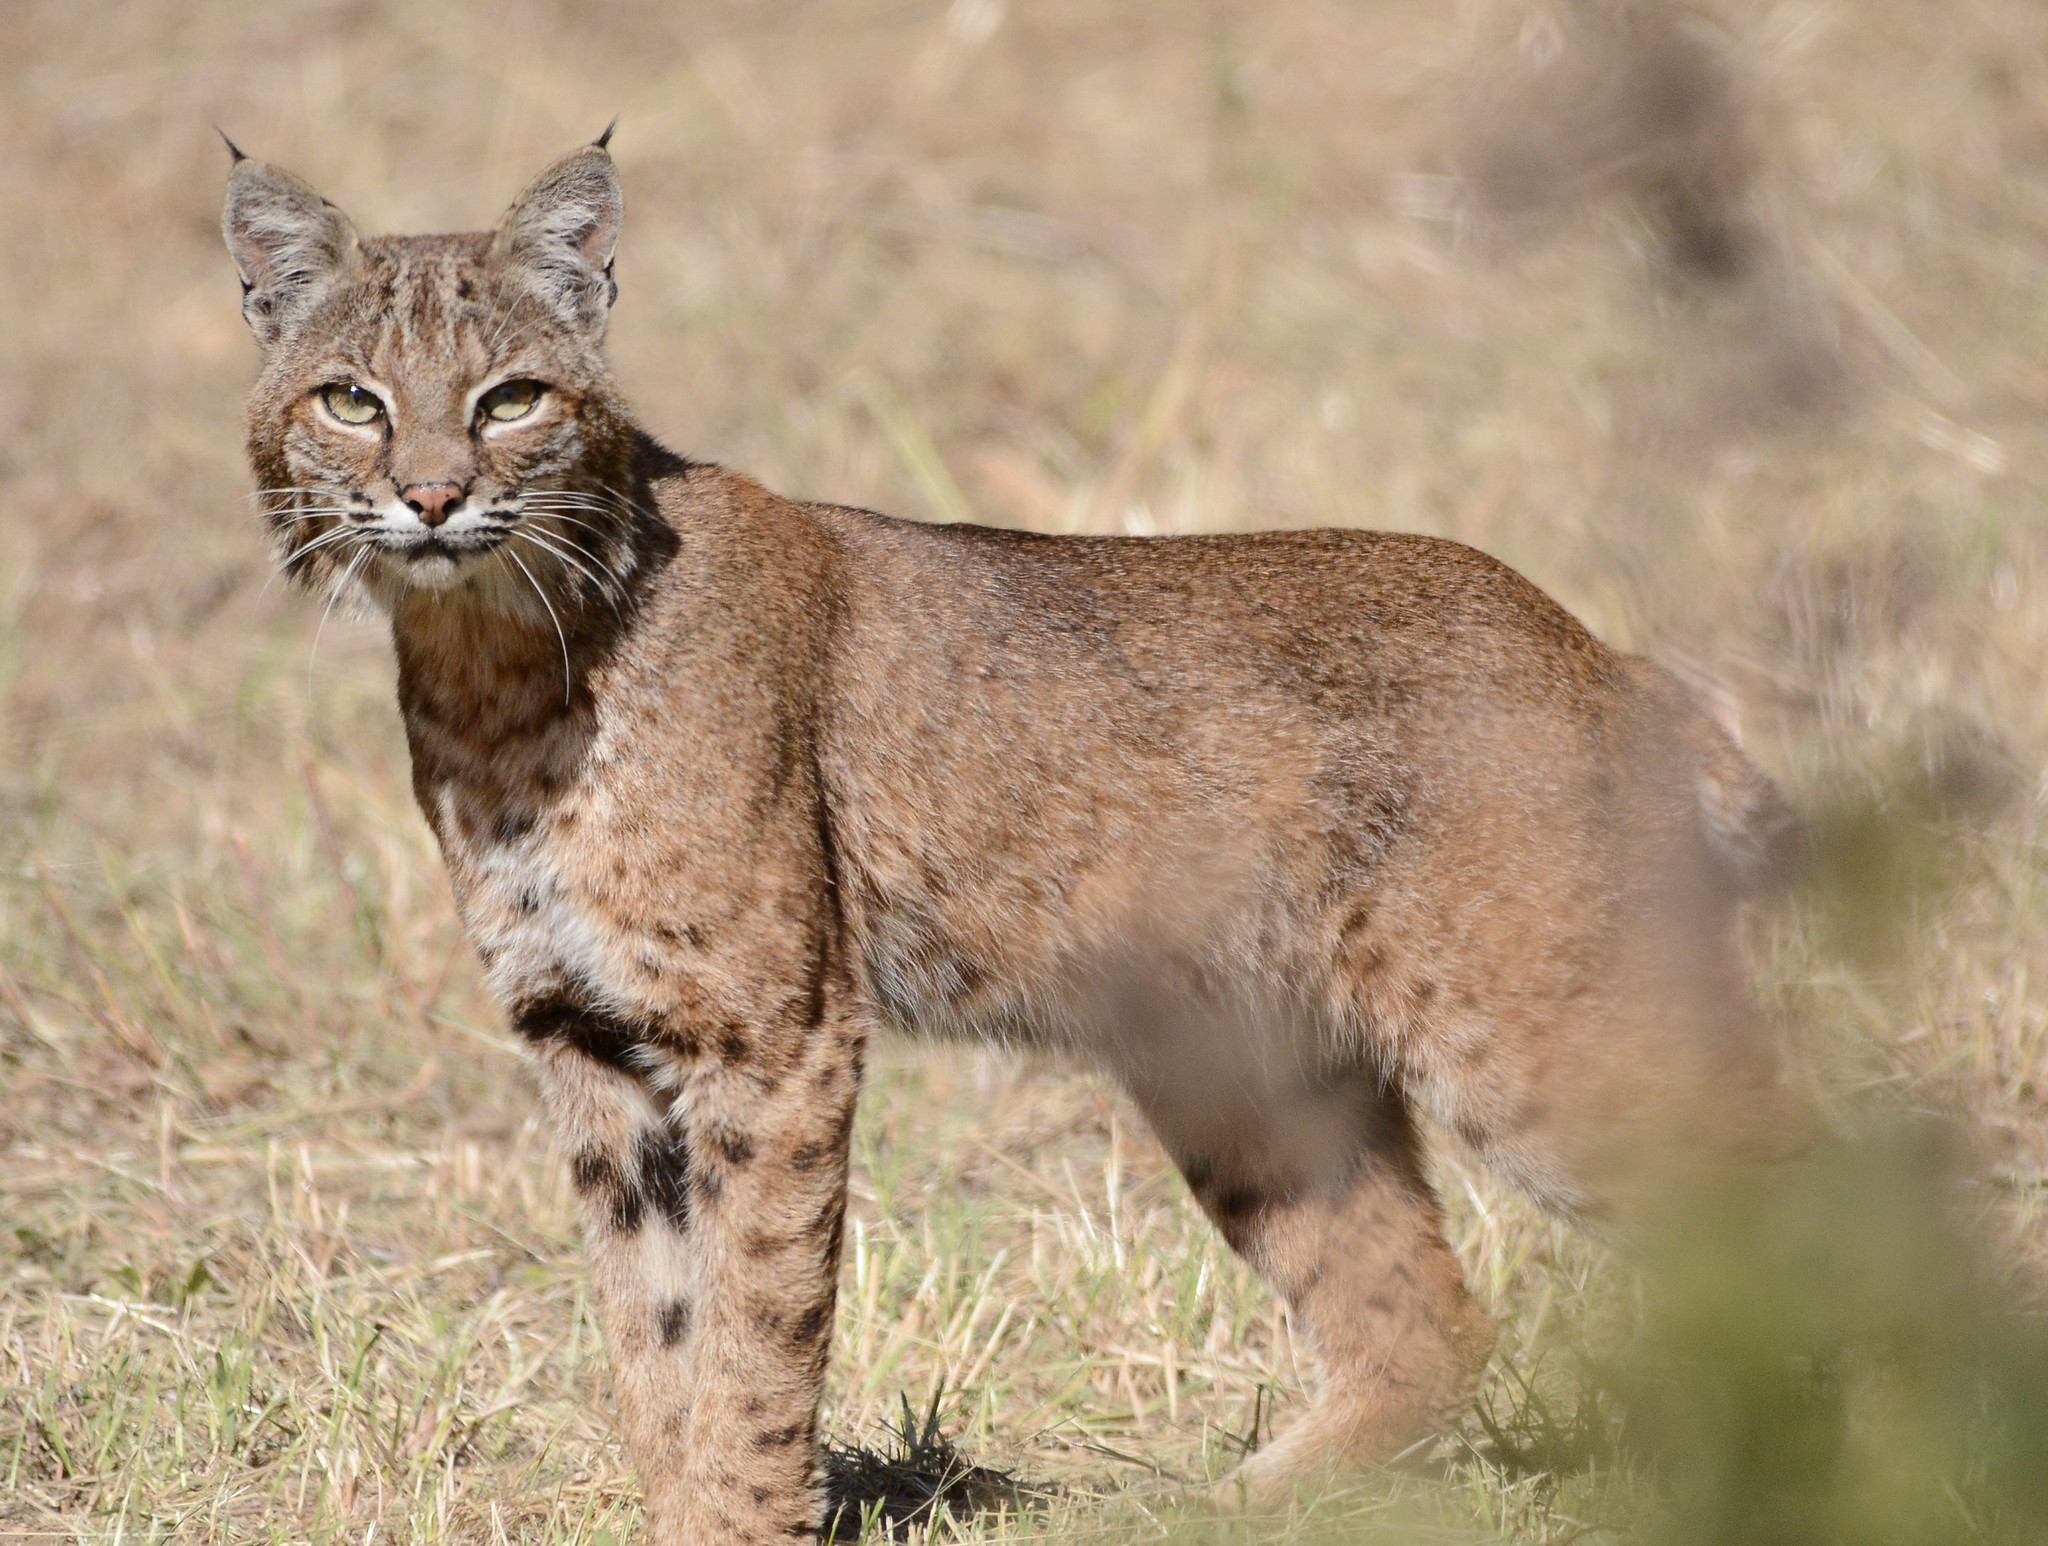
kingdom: Animalia
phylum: Chordata
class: Mammalia
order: Carnivora
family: Felidae
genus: Lynx
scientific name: Lynx rufus
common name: Bobcat
